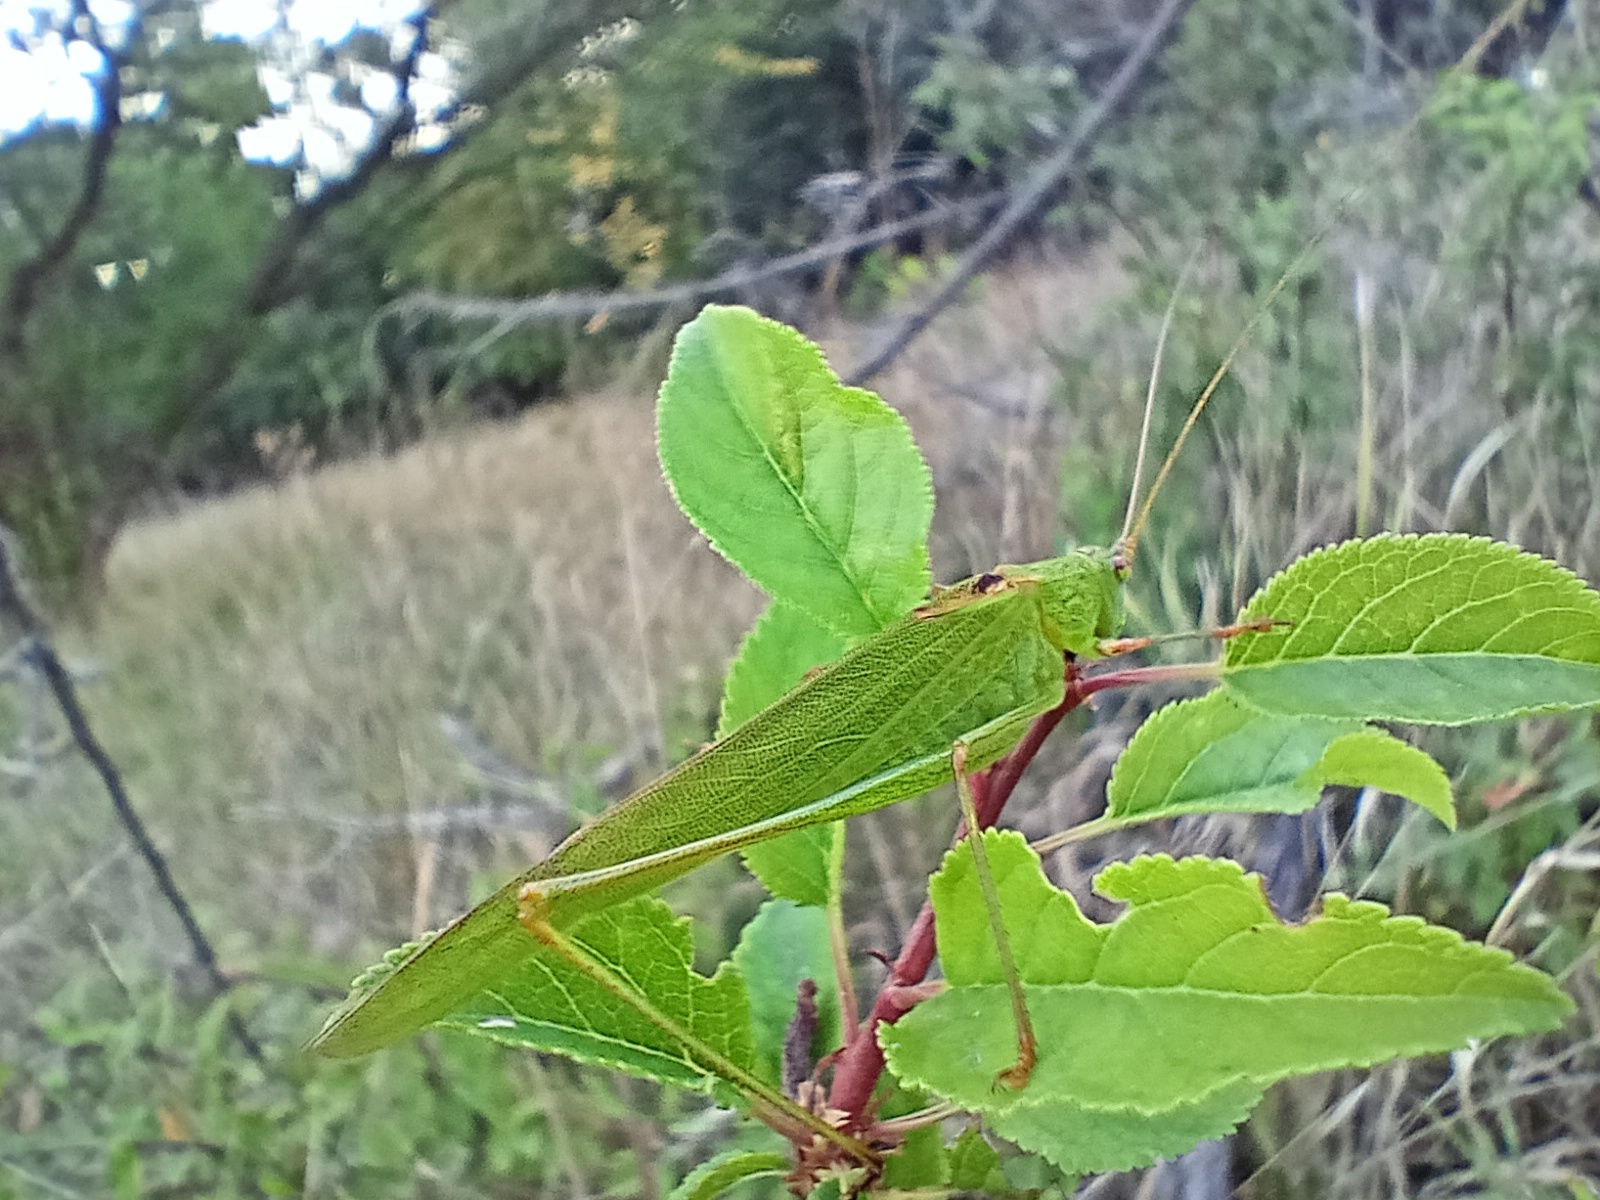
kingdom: Animalia
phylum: Arthropoda
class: Insecta
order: Orthoptera
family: Tettigoniidae
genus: Phaneroptera
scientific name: Phaneroptera falcata
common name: Sickle-bearing bush-cricket
